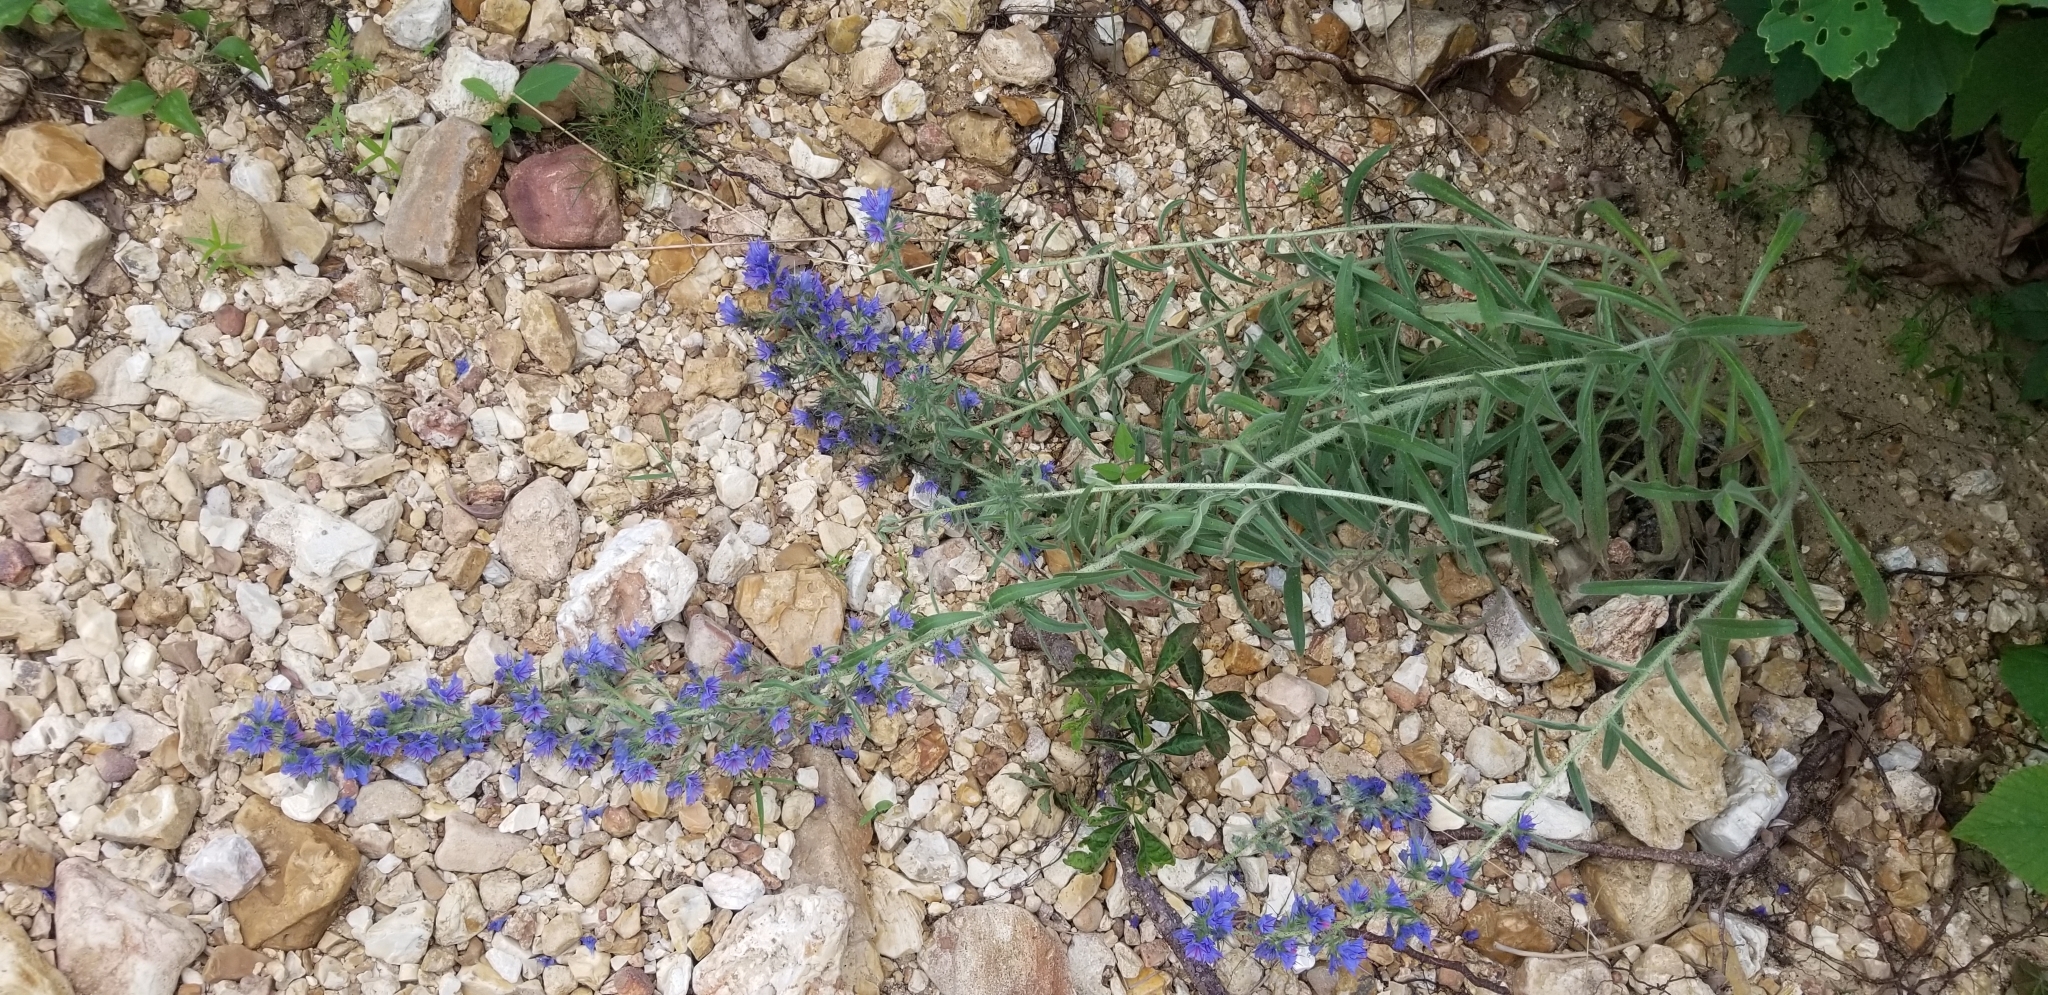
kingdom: Plantae
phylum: Tracheophyta
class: Magnoliopsida
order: Boraginales
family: Boraginaceae
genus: Echium
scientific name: Echium vulgare
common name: Common viper's bugloss
